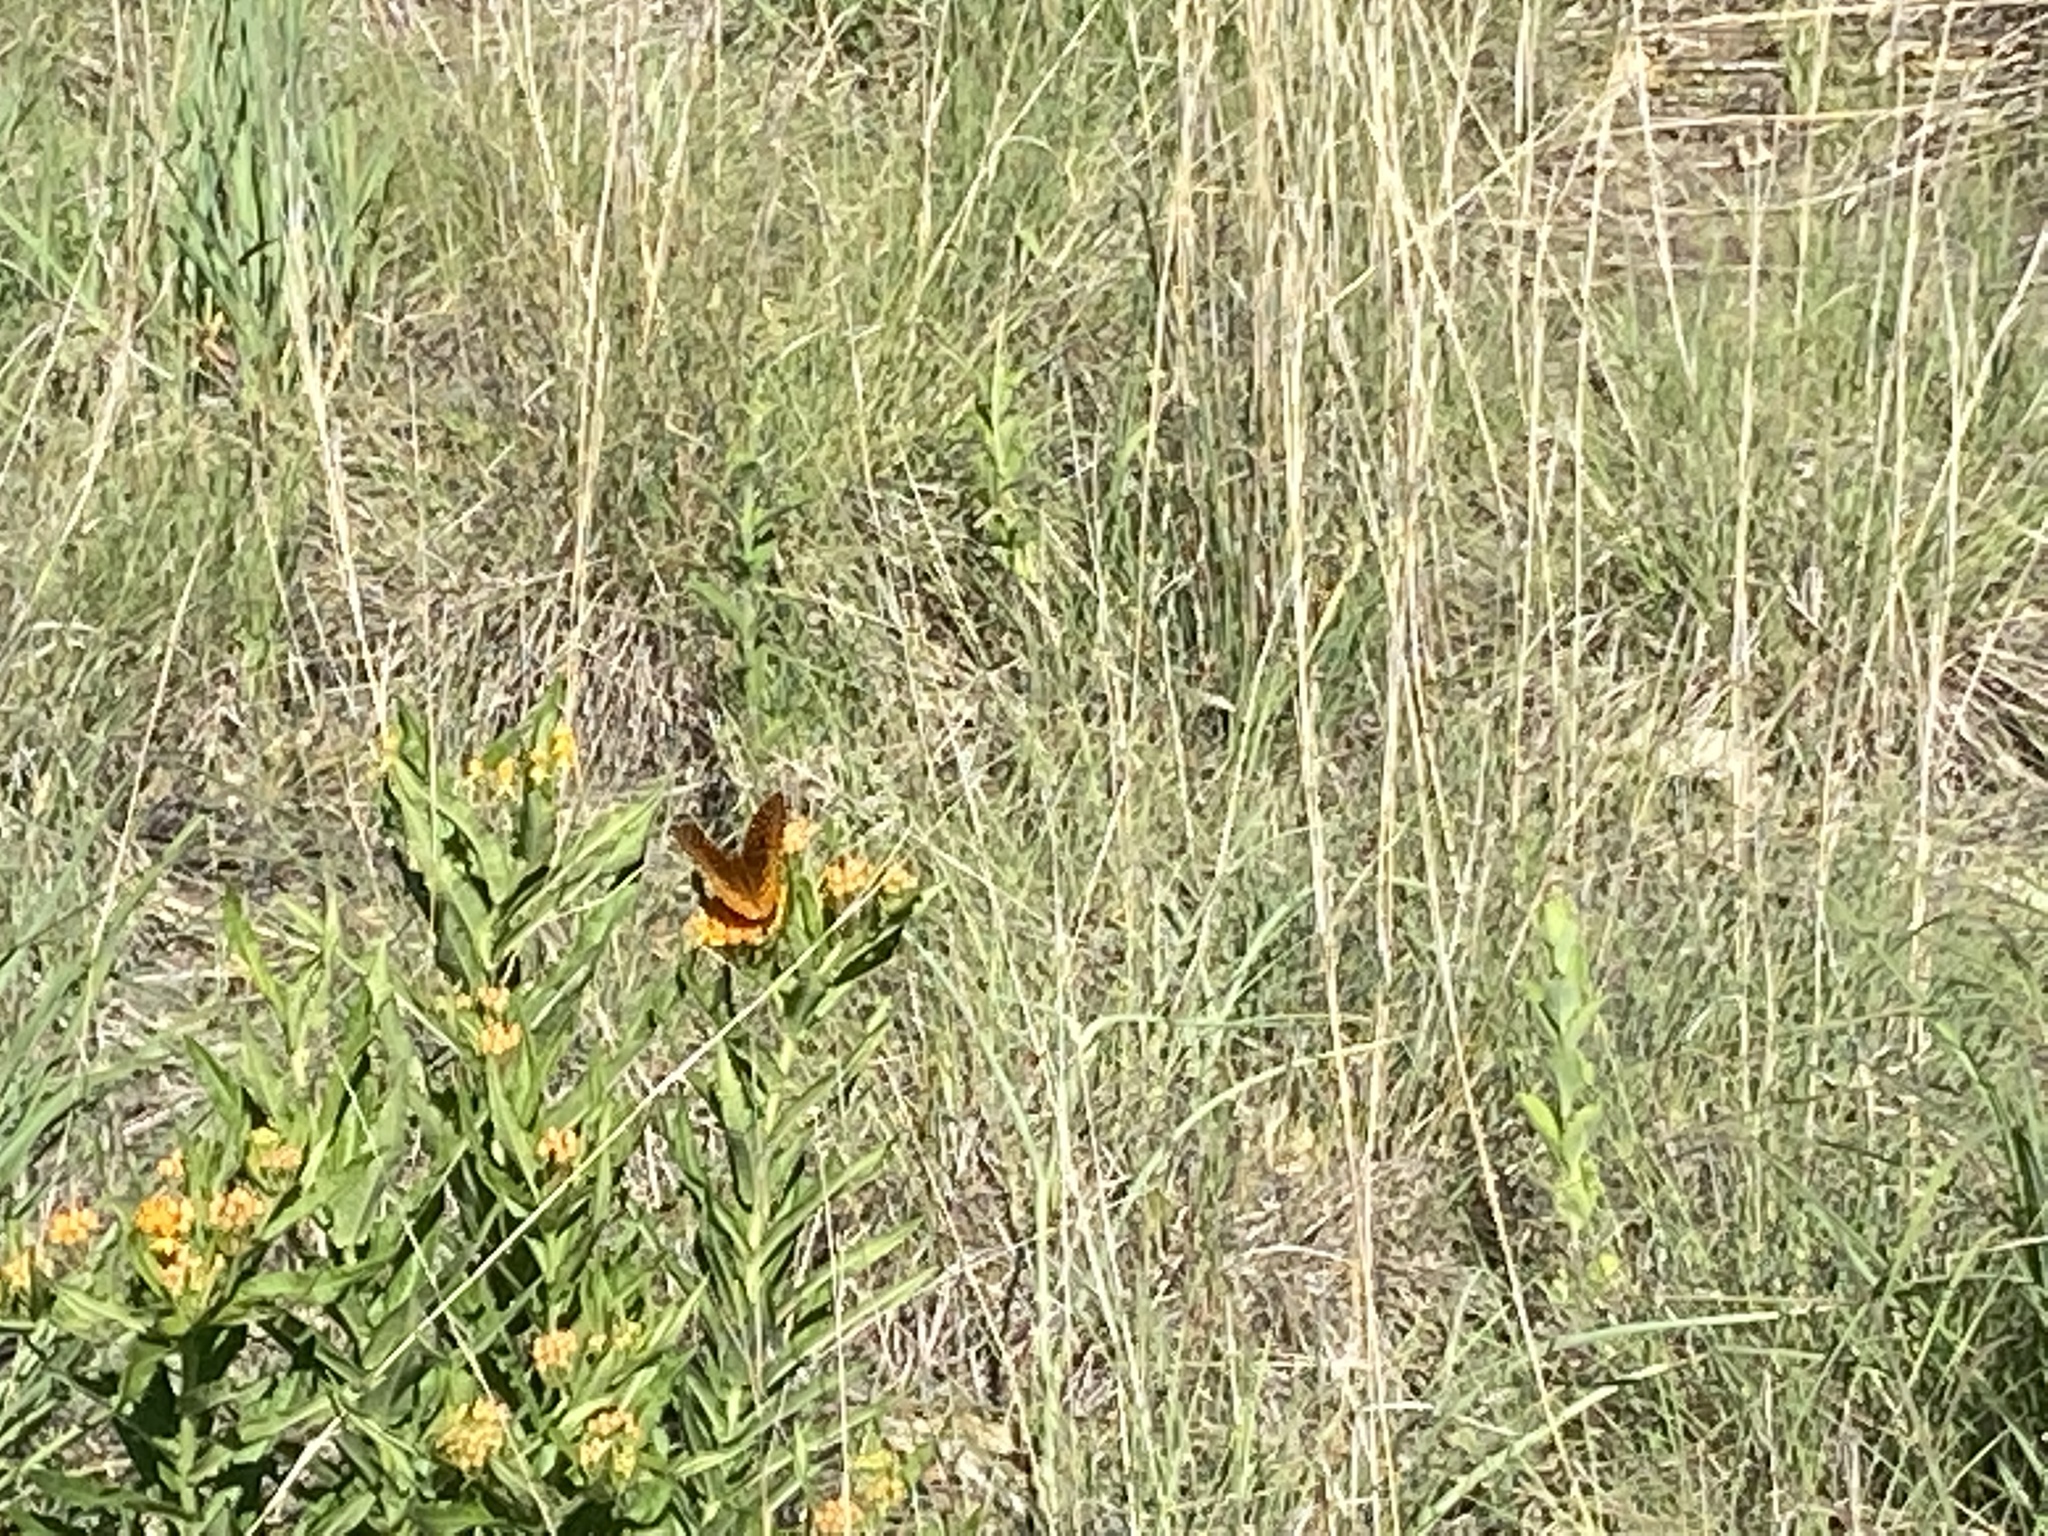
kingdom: Animalia
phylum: Arthropoda
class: Insecta
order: Lepidoptera
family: Nymphalidae
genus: Speyeria
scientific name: Speyeria cybele
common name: Great spangled fritillary
